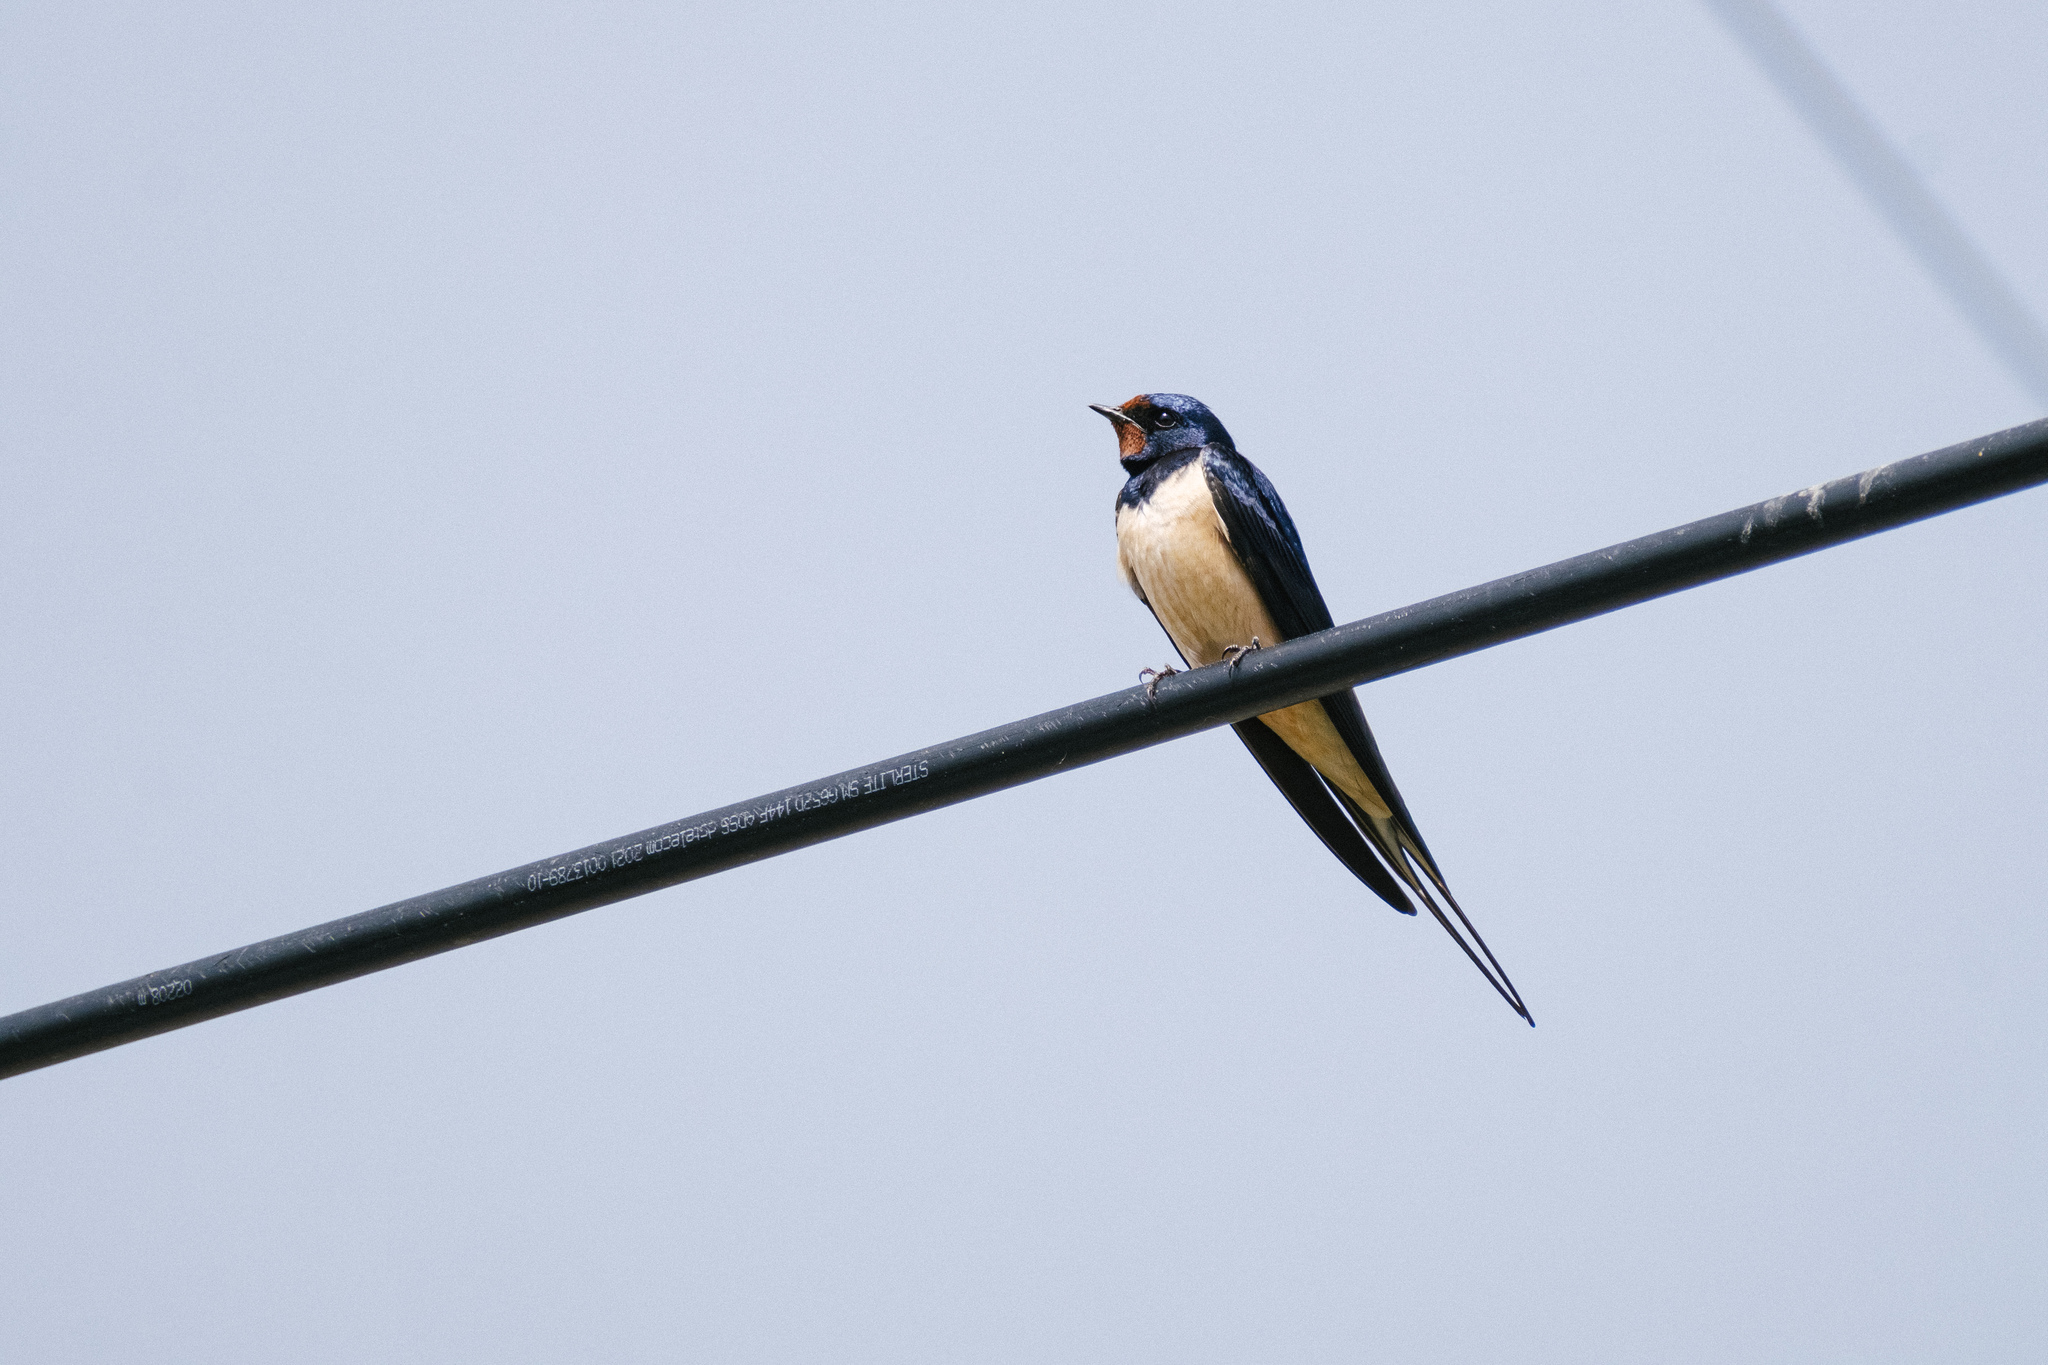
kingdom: Animalia
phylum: Chordata
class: Aves
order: Passeriformes
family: Hirundinidae
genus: Hirundo
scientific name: Hirundo rustica
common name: Barn swallow
